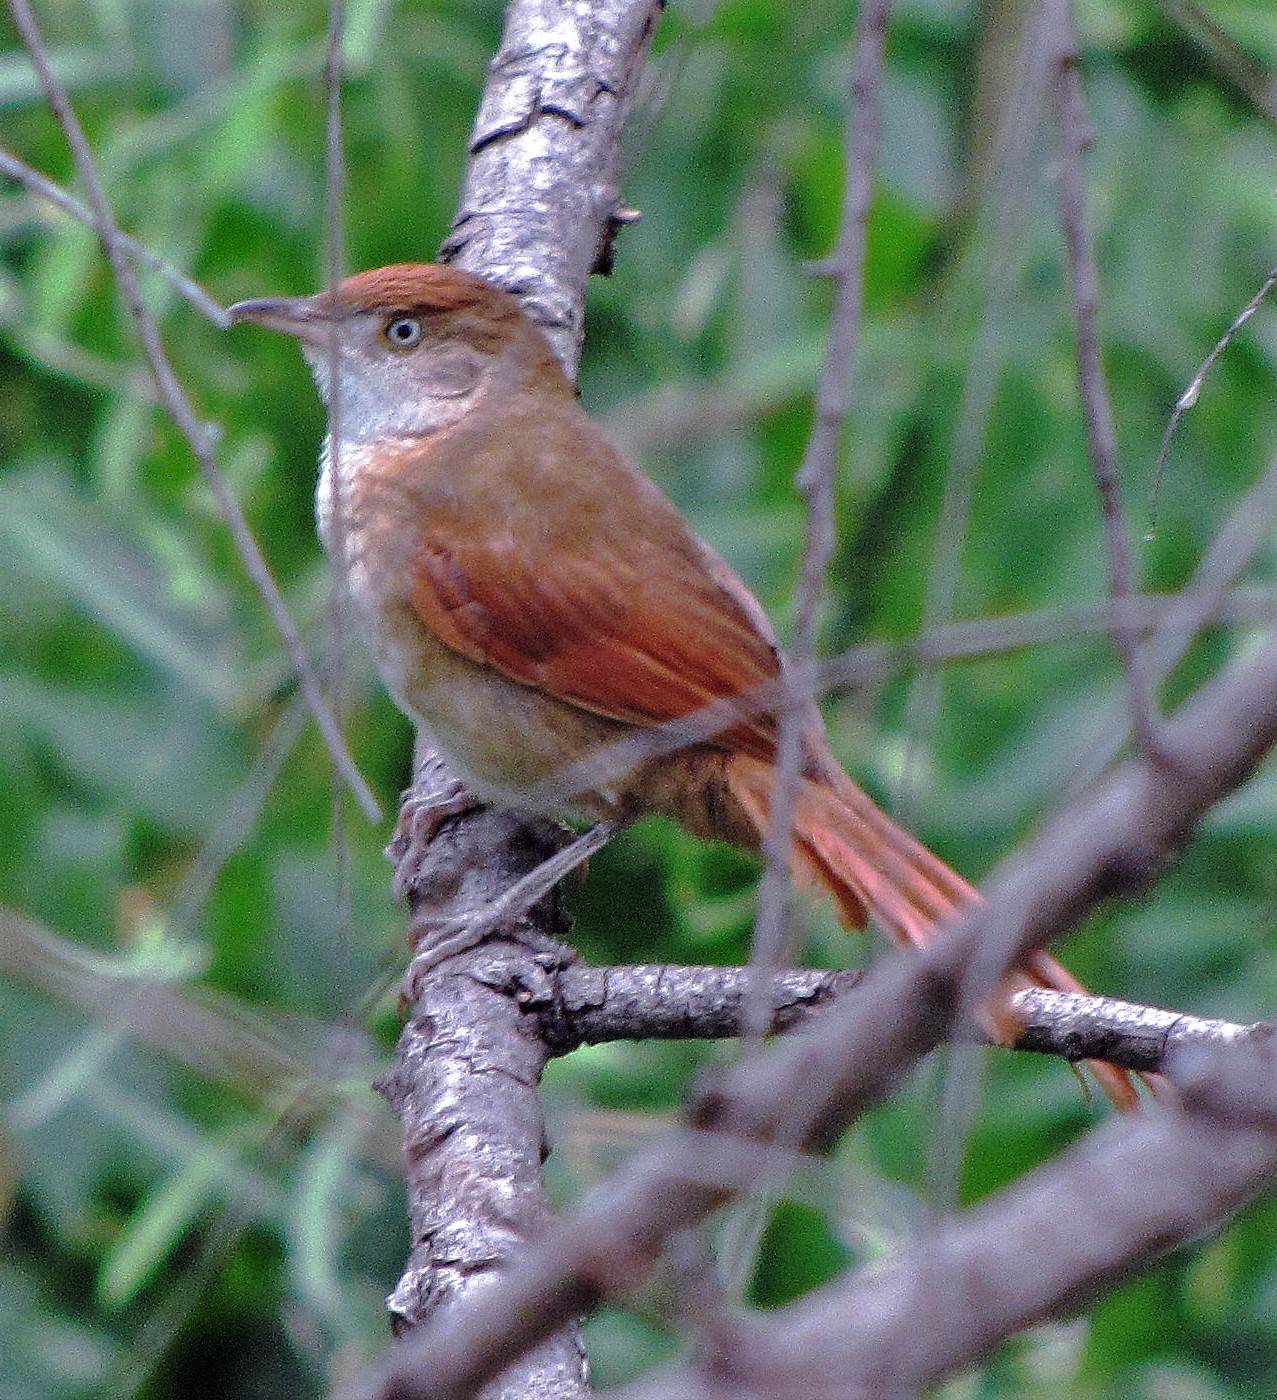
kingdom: Animalia
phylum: Chordata
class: Aves
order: Passeriformes
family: Furnariidae
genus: Phacellodomus
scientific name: Phacellodomus ruber
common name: Greater thornbird
